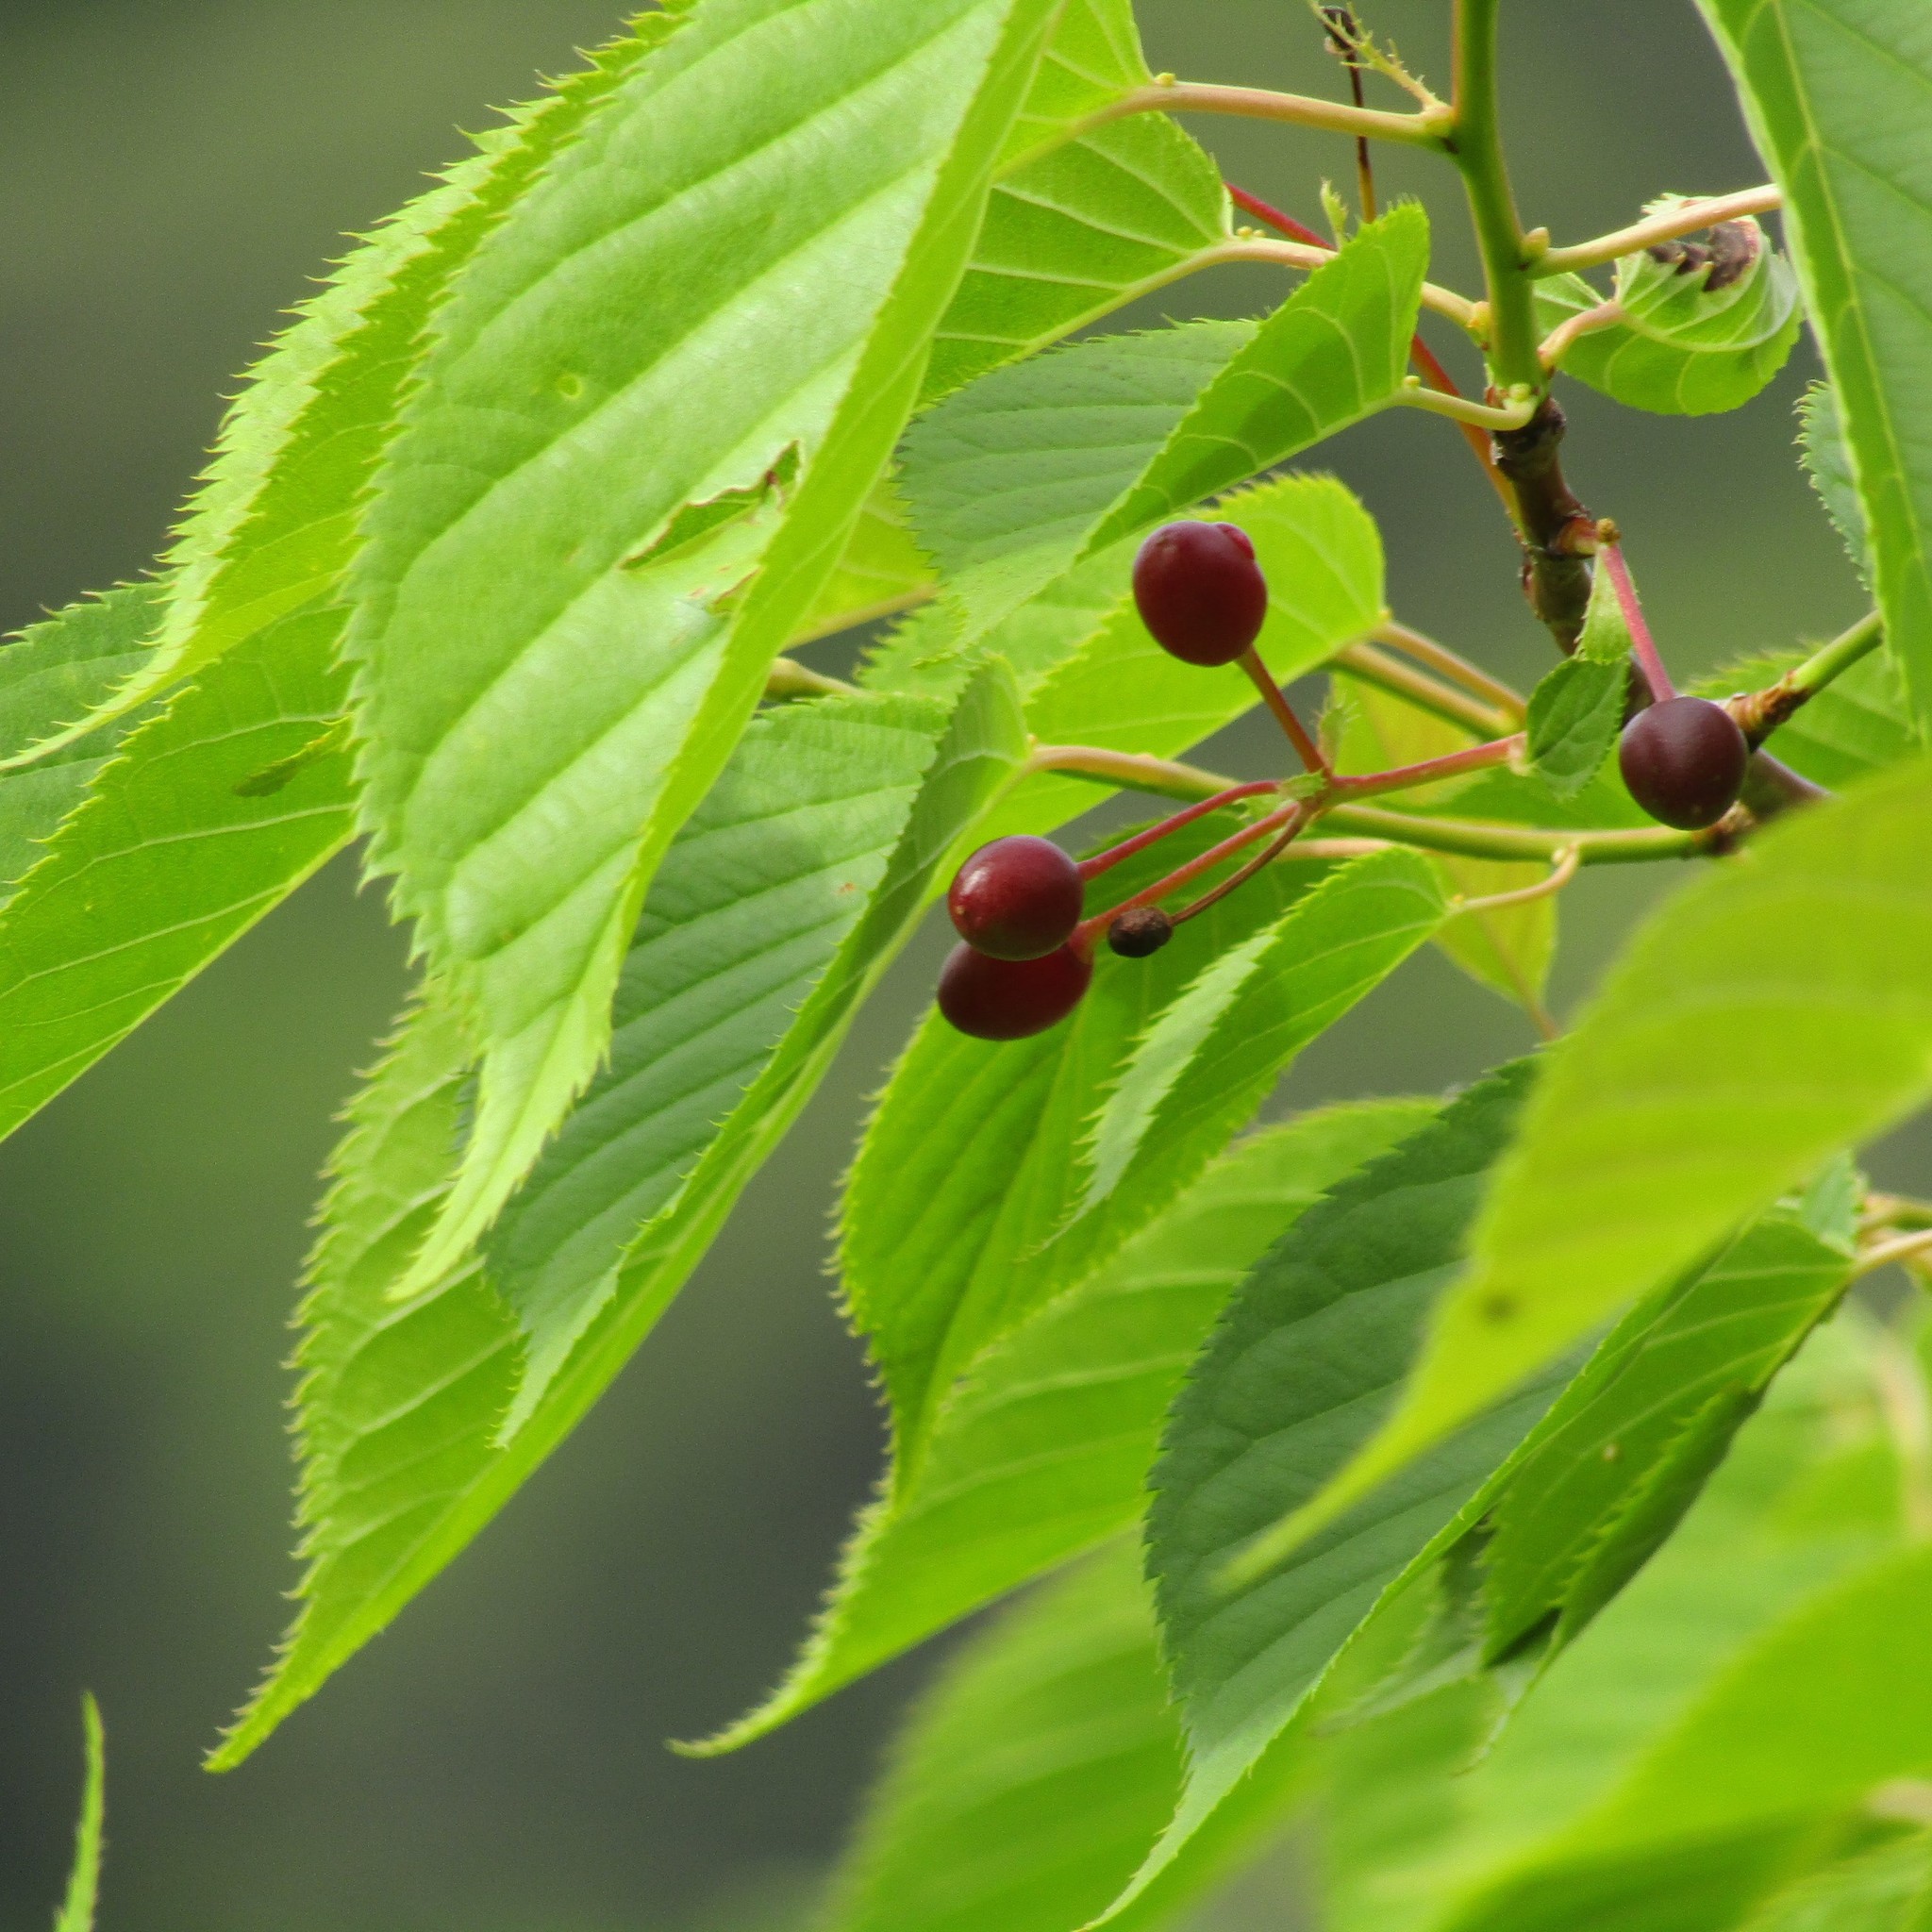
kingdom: Plantae
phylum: Tracheophyta
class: Magnoliopsida
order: Rosales
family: Rosaceae
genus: Prunus
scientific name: Prunus serrulata
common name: Japanese cherry
